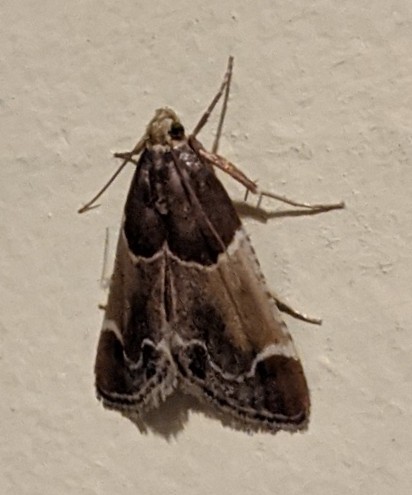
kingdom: Animalia
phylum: Arthropoda
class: Insecta
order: Lepidoptera
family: Pyralidae
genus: Pyralis
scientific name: Pyralis farinalis
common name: Meal moth
